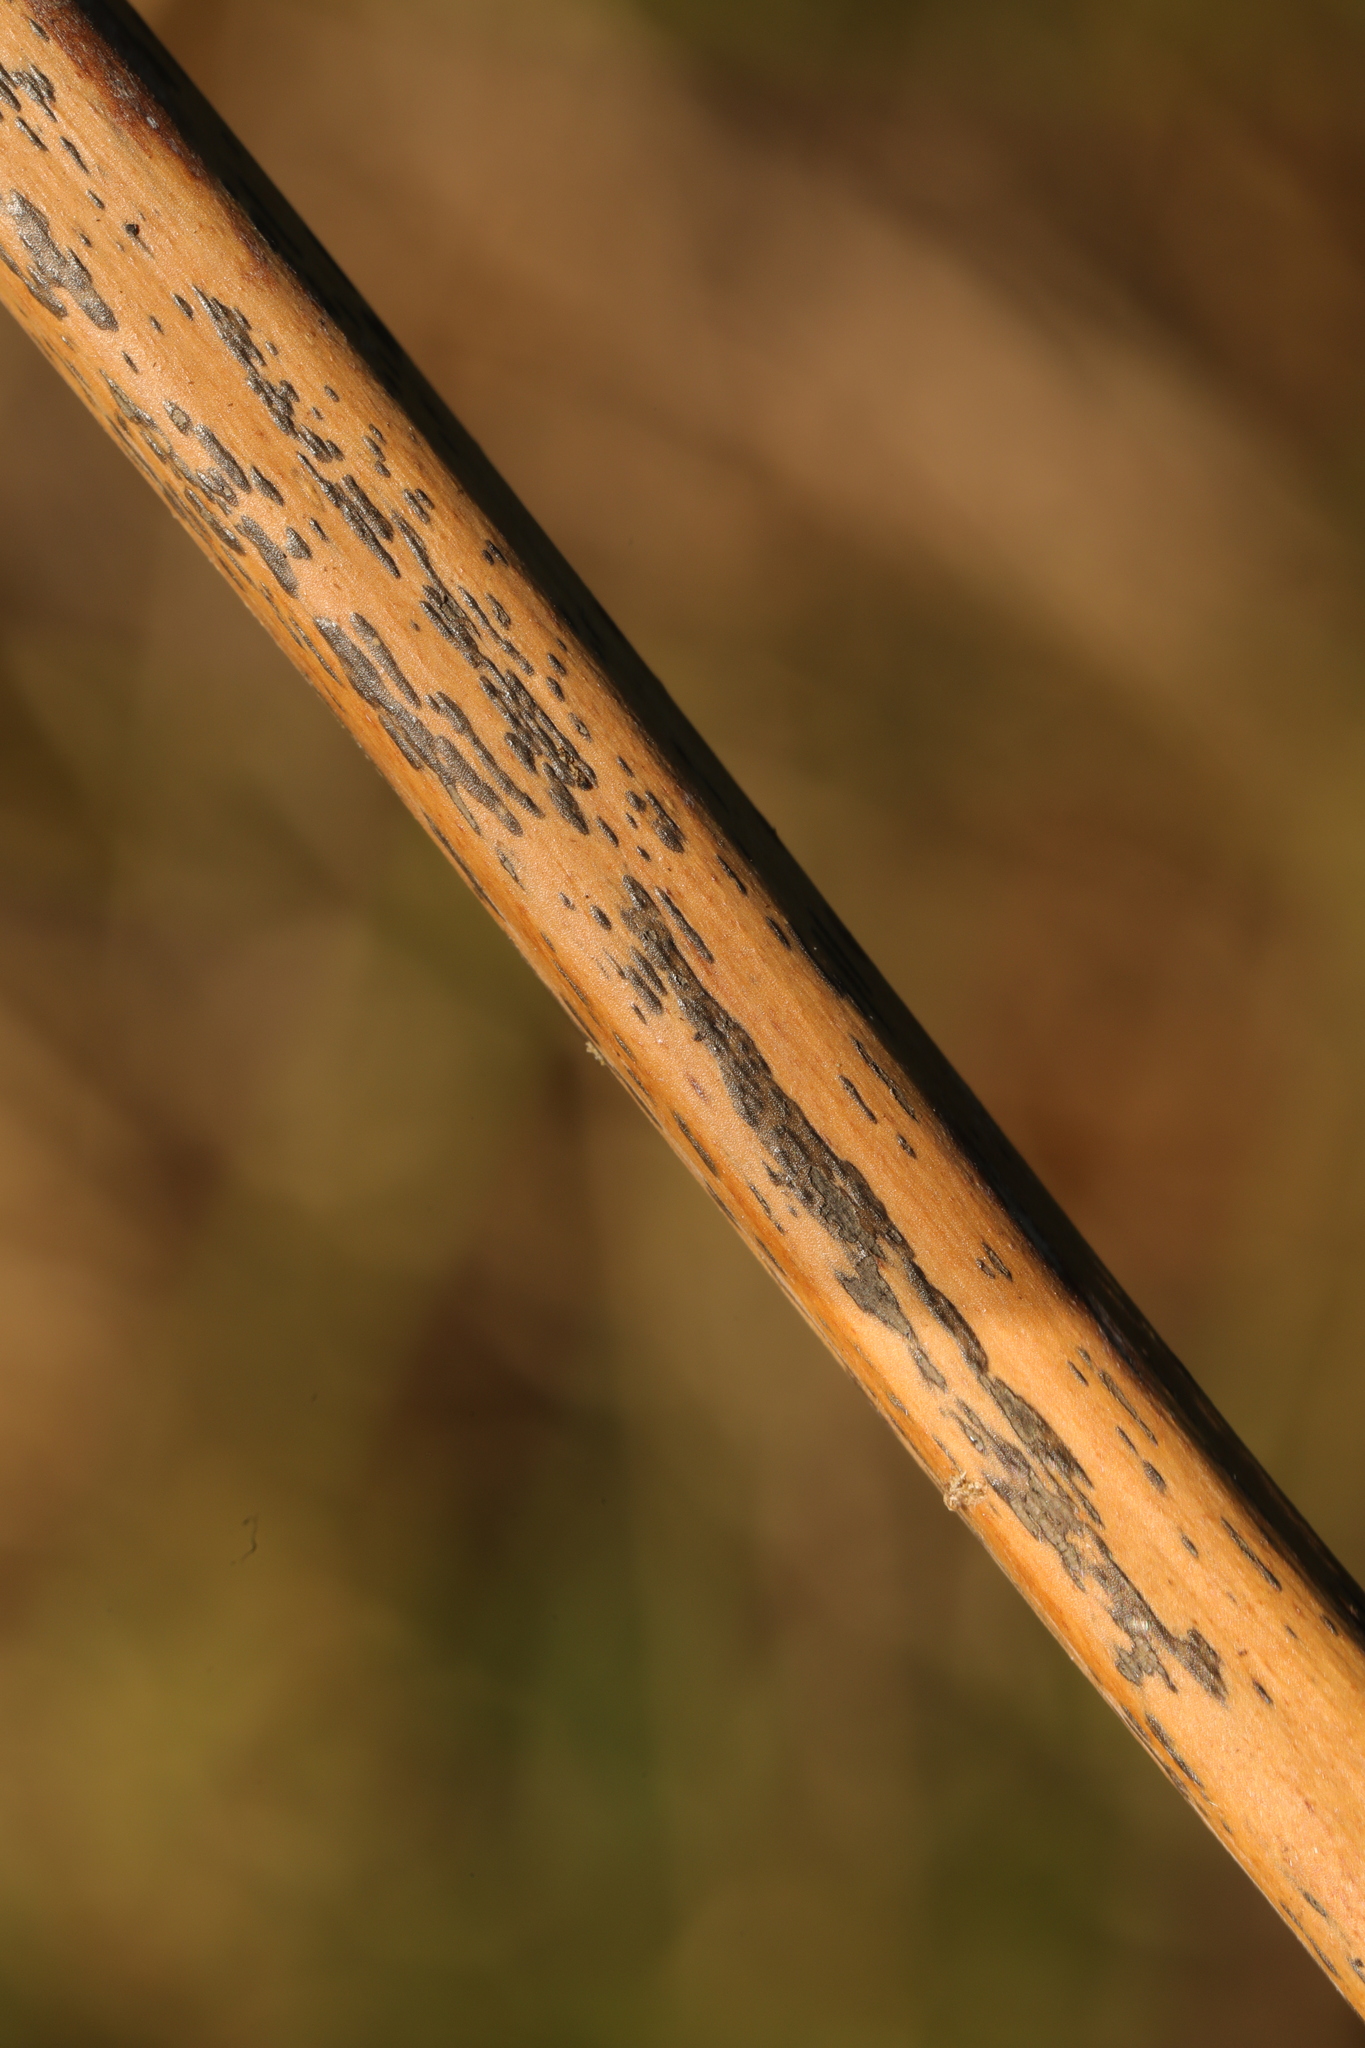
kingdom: Fungi
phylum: Ascomycota
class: Dothideomycetes
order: Pleosporales
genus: Rhopographus
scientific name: Rhopographus filicinus
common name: Bracken map
